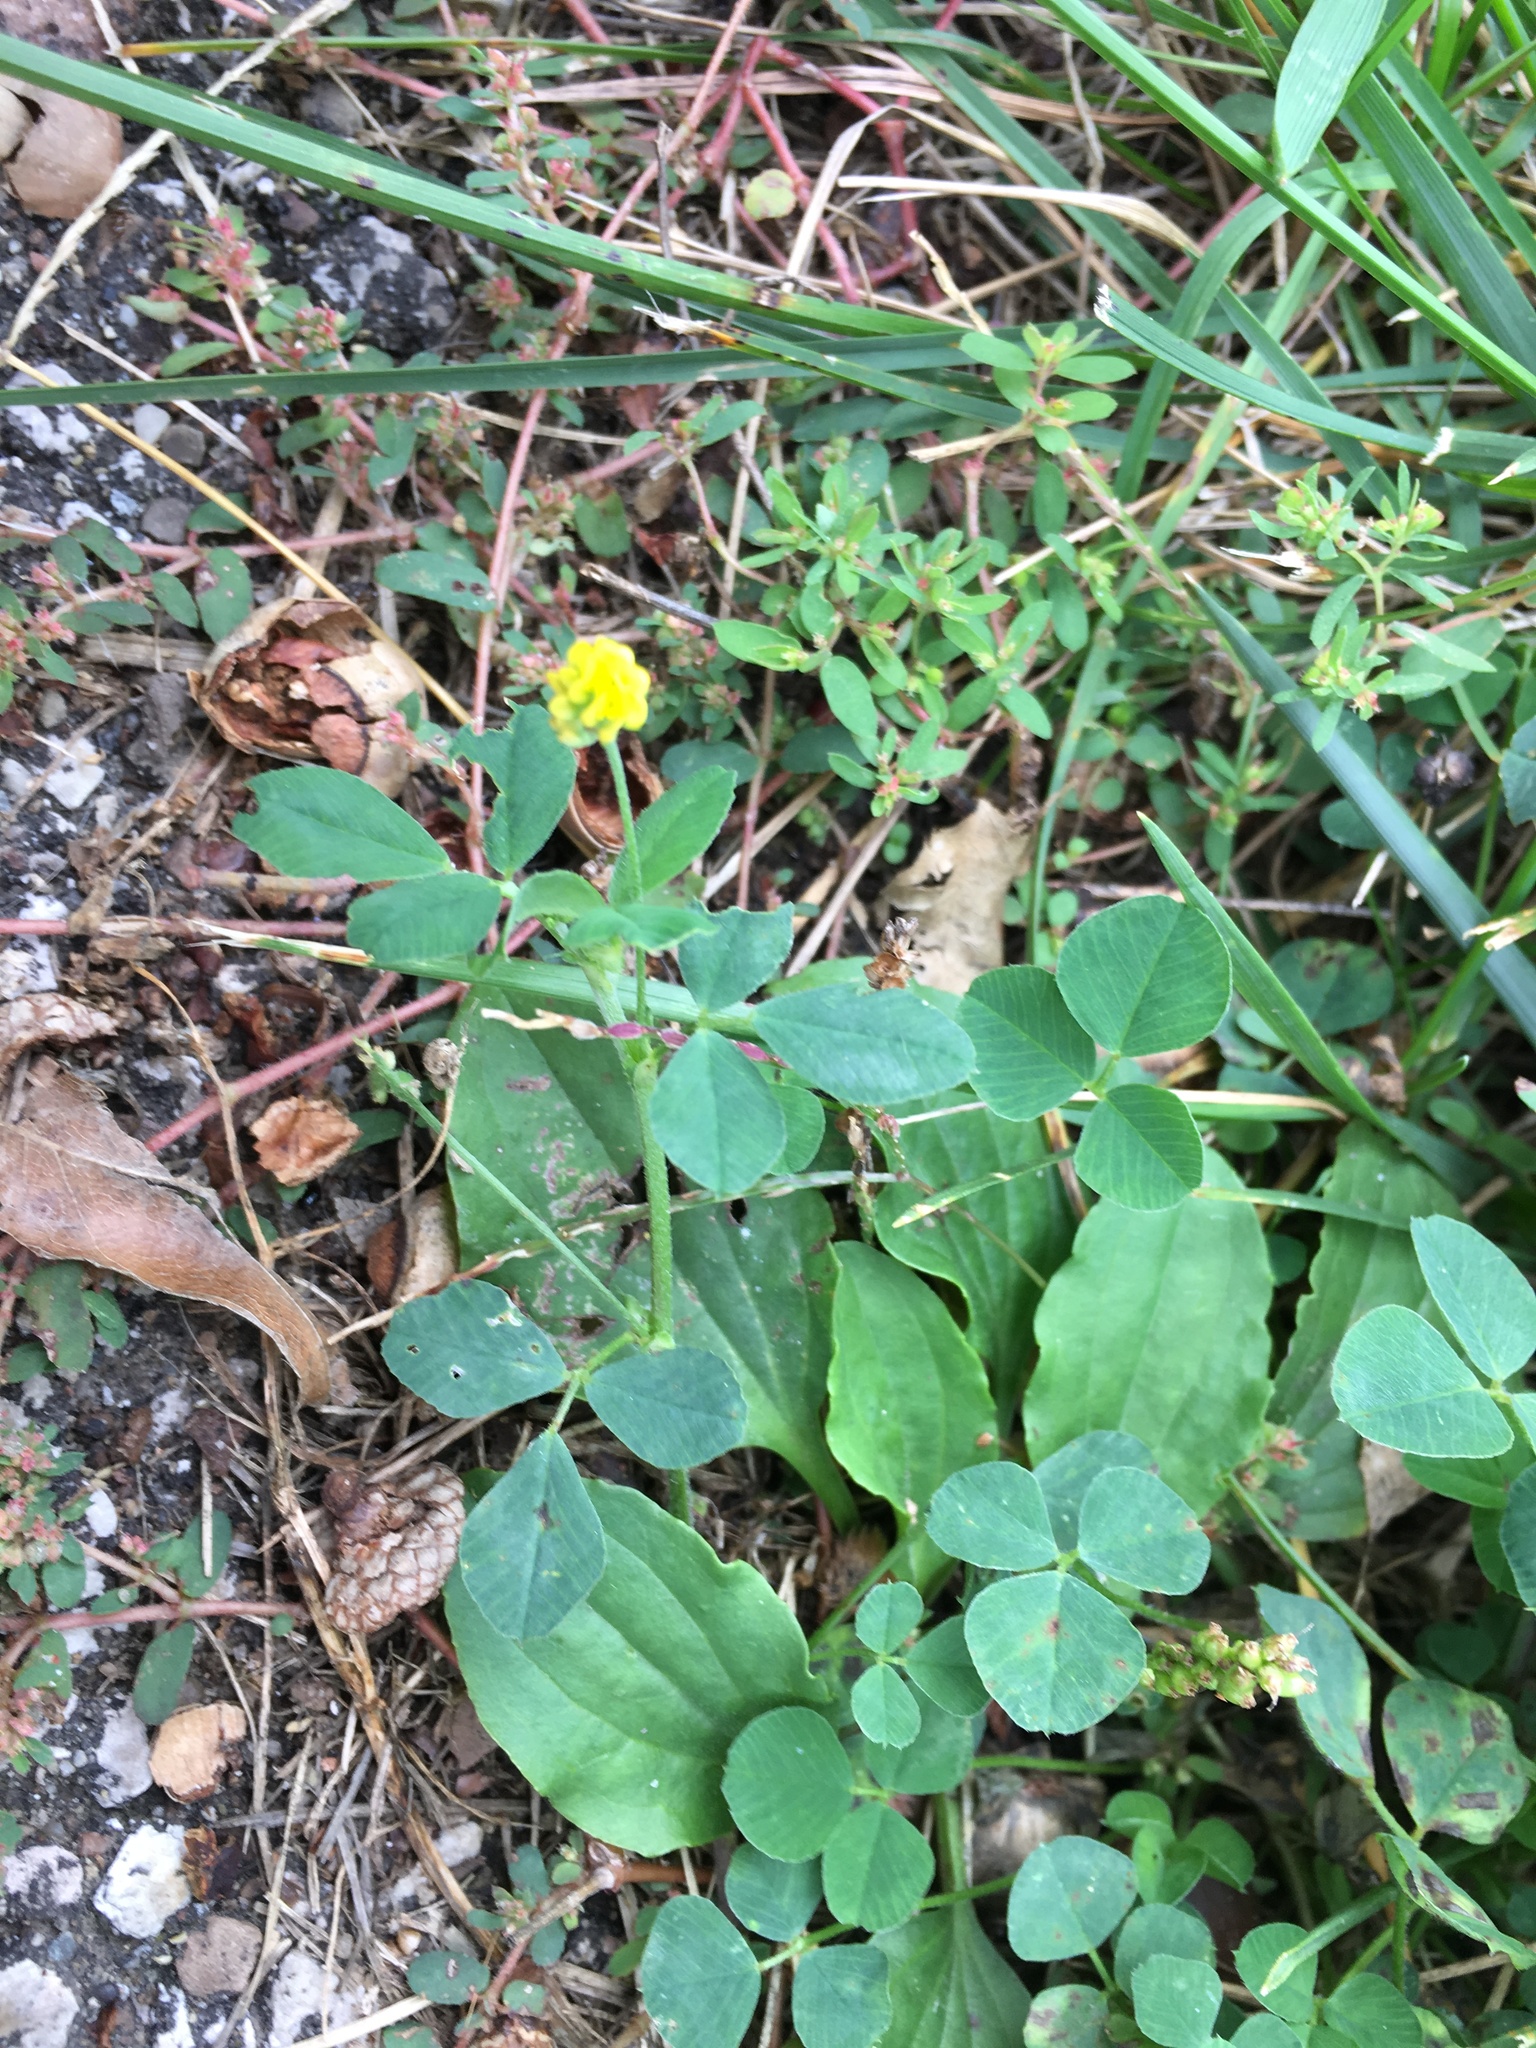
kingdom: Plantae
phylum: Tracheophyta
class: Magnoliopsida
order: Fabales
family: Fabaceae
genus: Medicago
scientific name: Medicago lupulina
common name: Black medick
